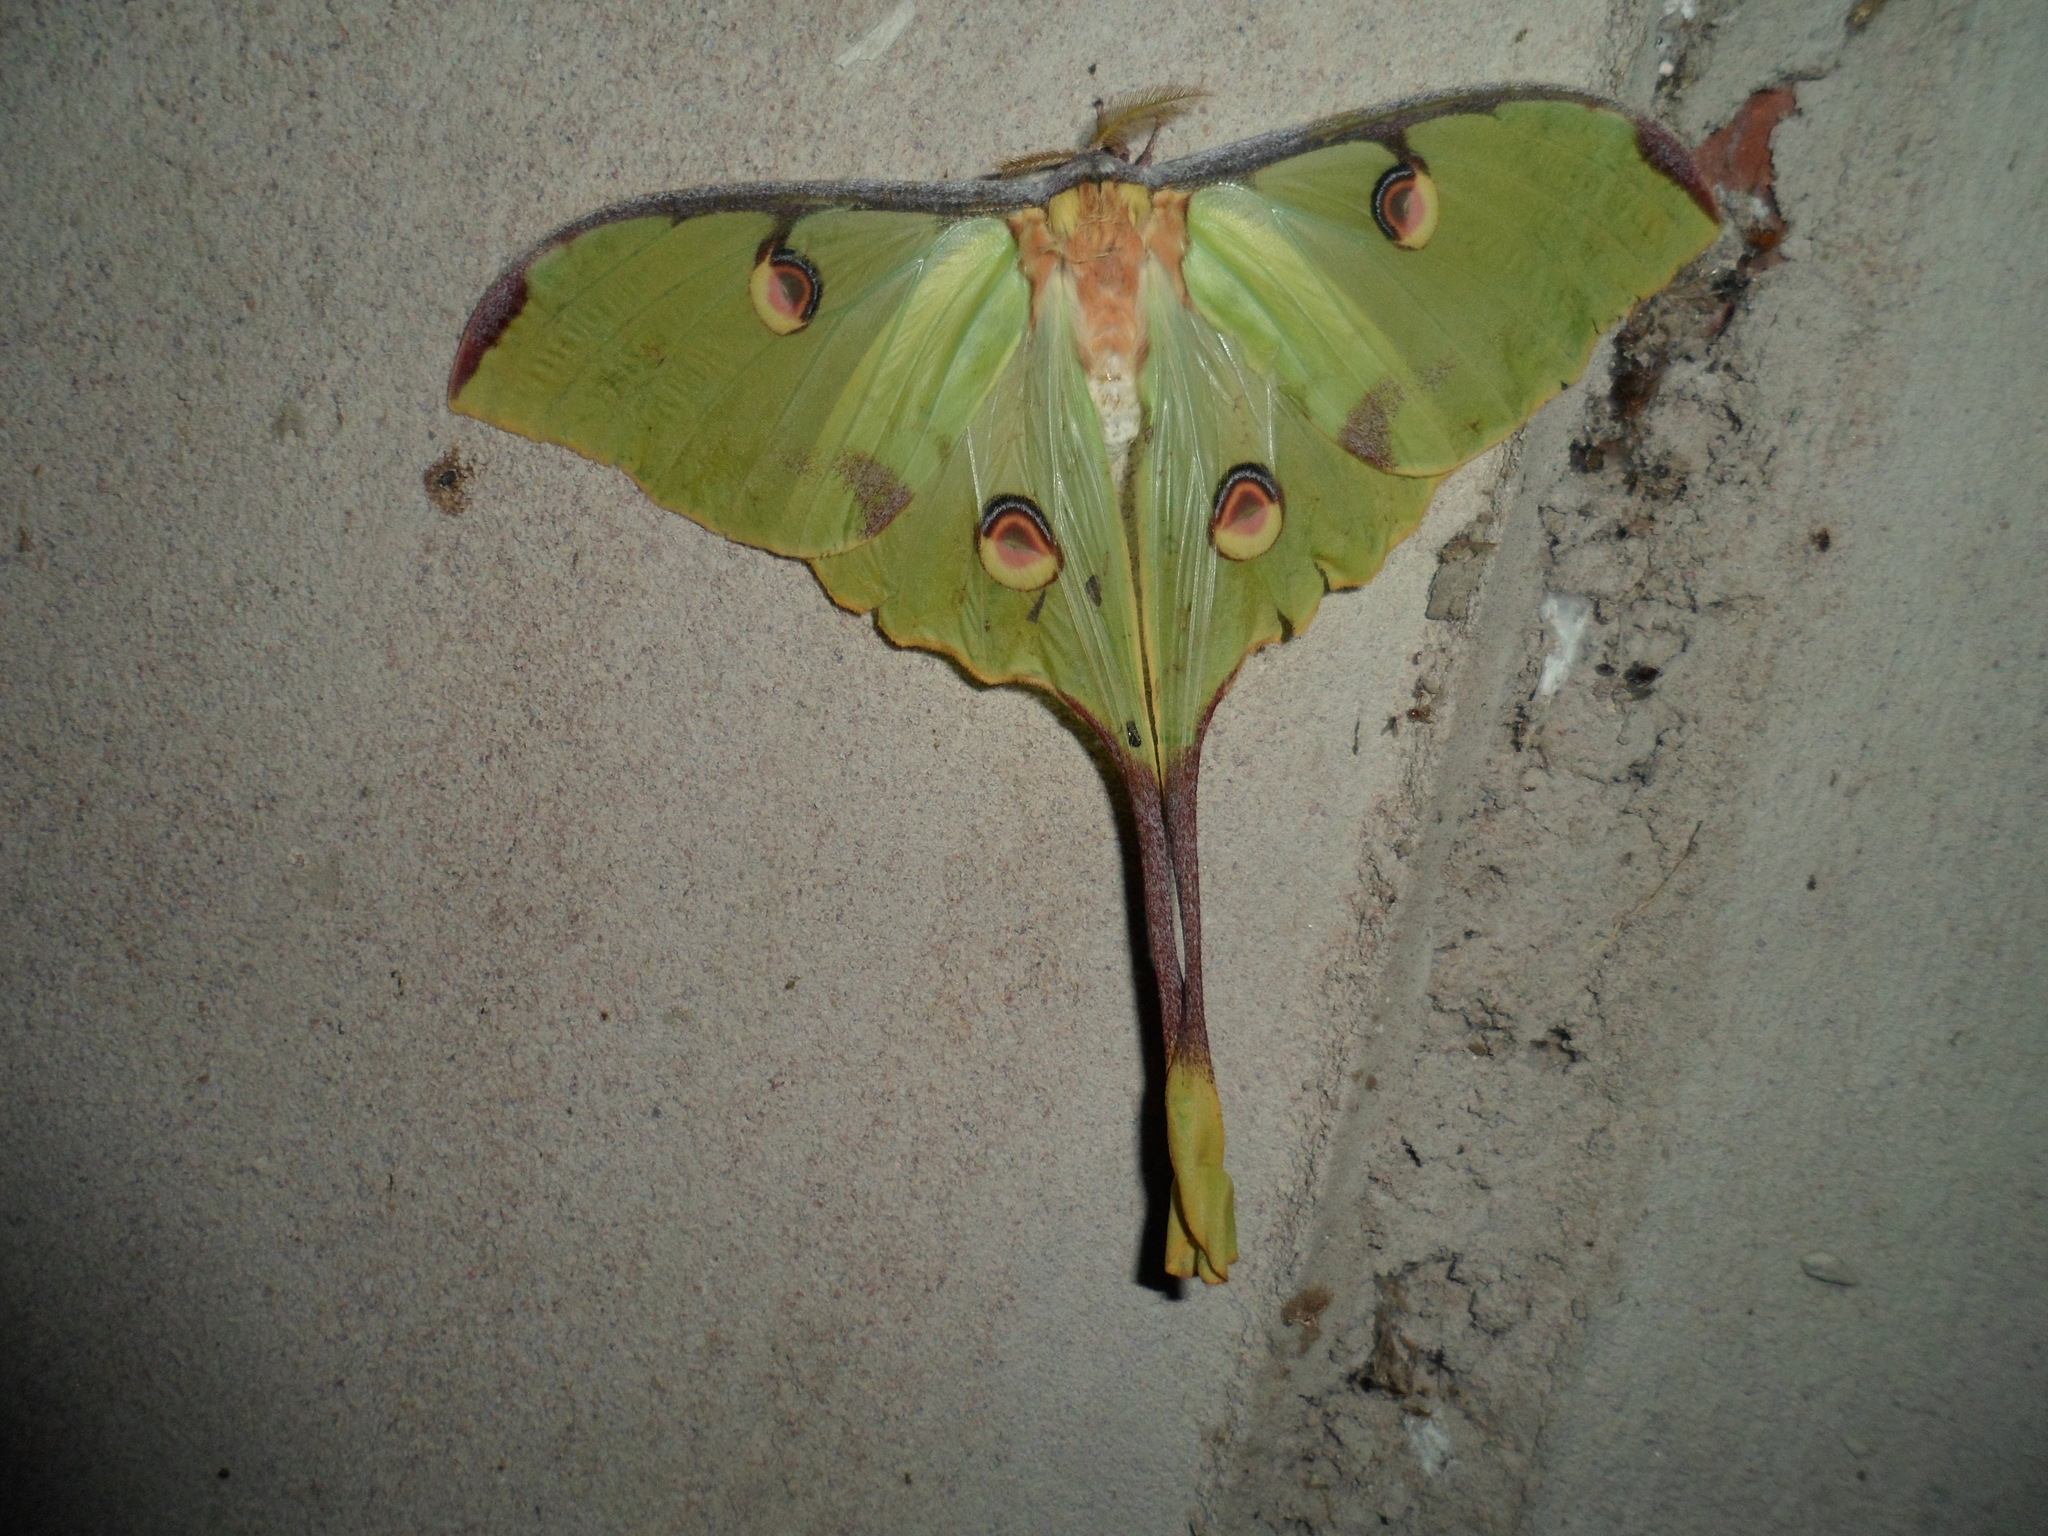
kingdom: Animalia
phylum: Arthropoda
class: Insecta
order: Lepidoptera
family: Saturniidae
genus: Argema
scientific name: Argema mimosae
